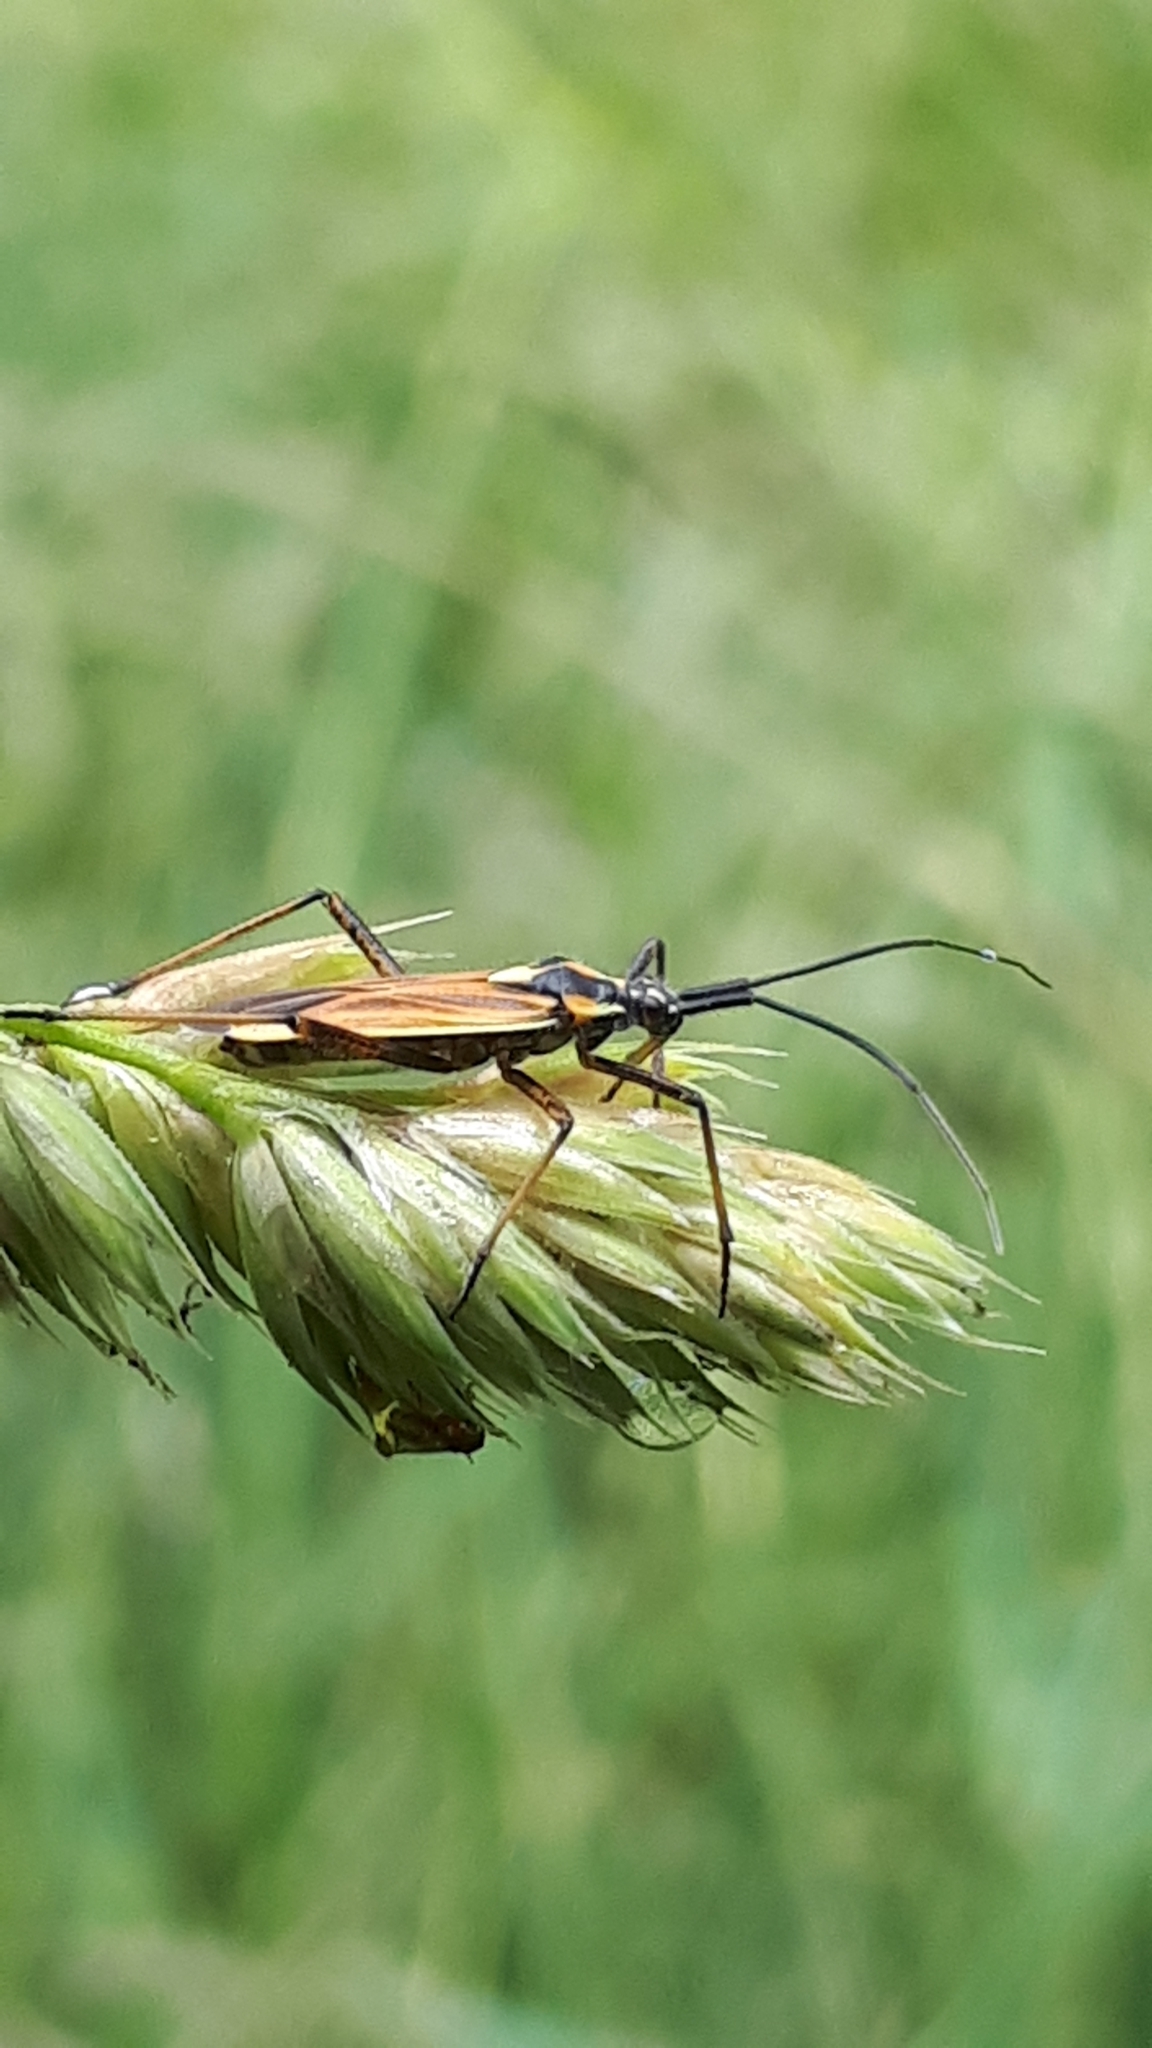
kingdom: Animalia
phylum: Arthropoda
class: Insecta
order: Hemiptera
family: Miridae
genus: Leptopterna
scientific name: Leptopterna dolabrata
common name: Meadow plant bug
